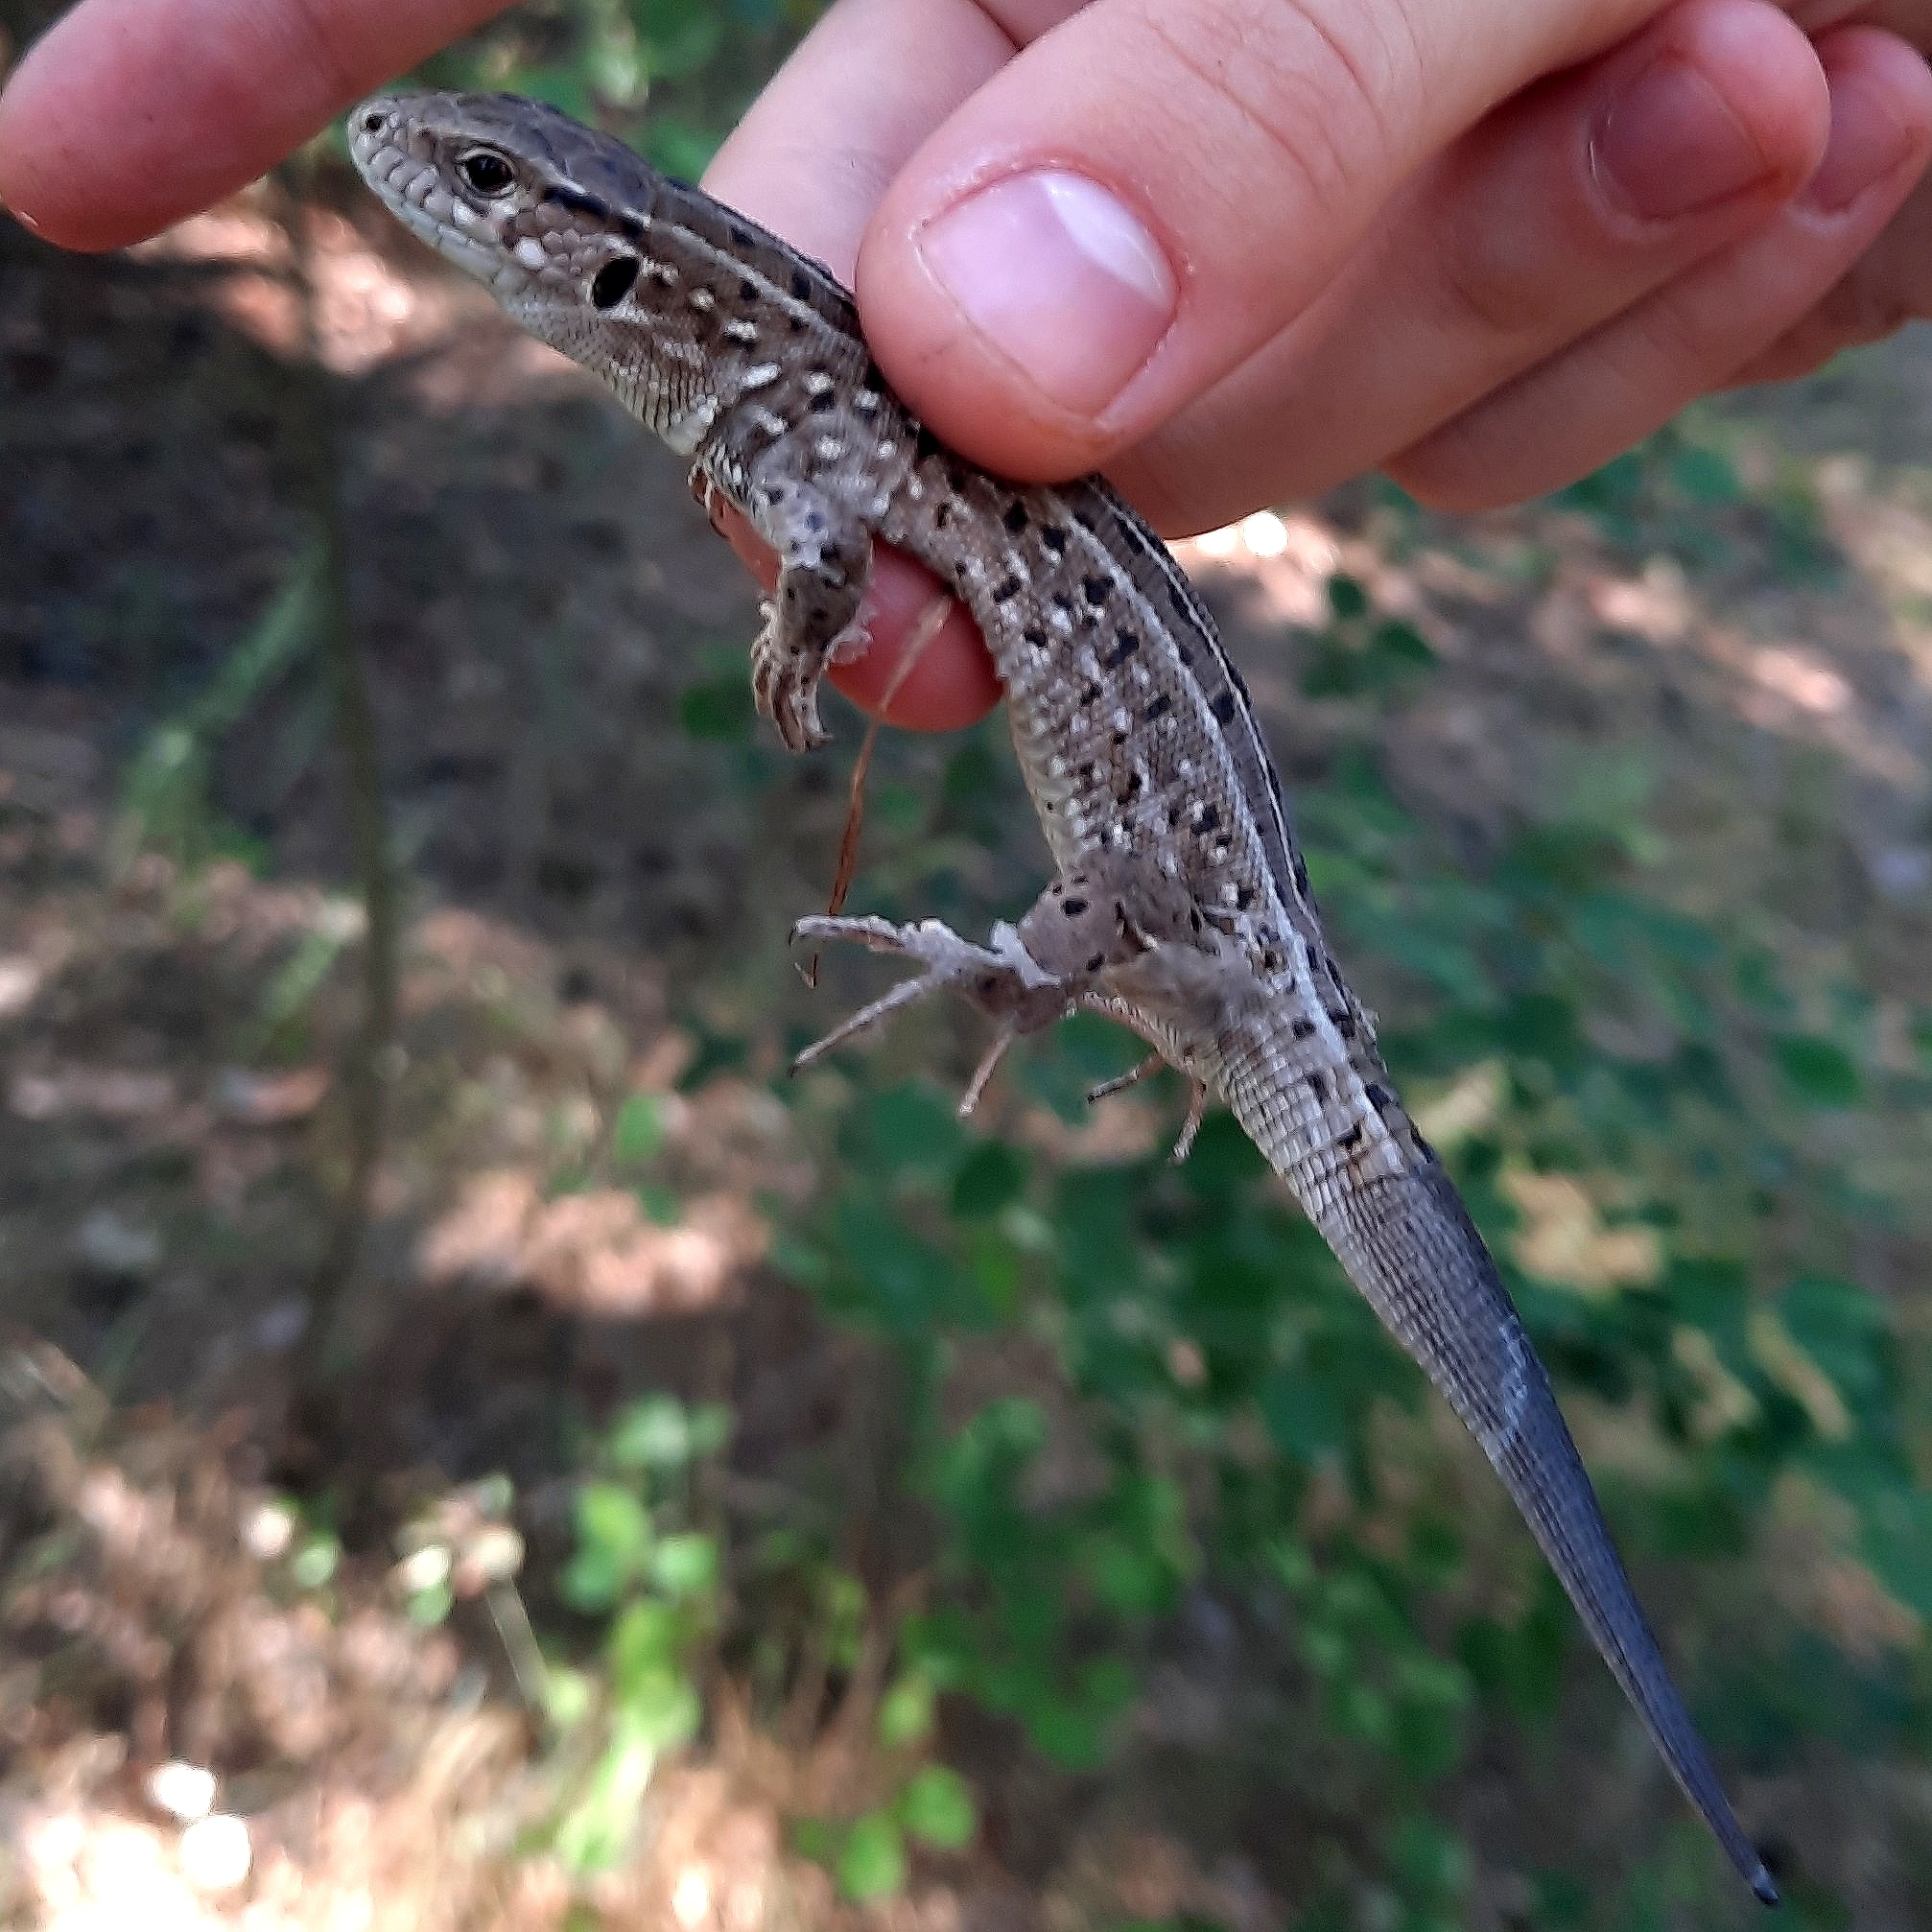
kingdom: Animalia
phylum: Chordata
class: Squamata
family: Lacertidae
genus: Lacerta
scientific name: Lacerta agilis
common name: Sand lizard
